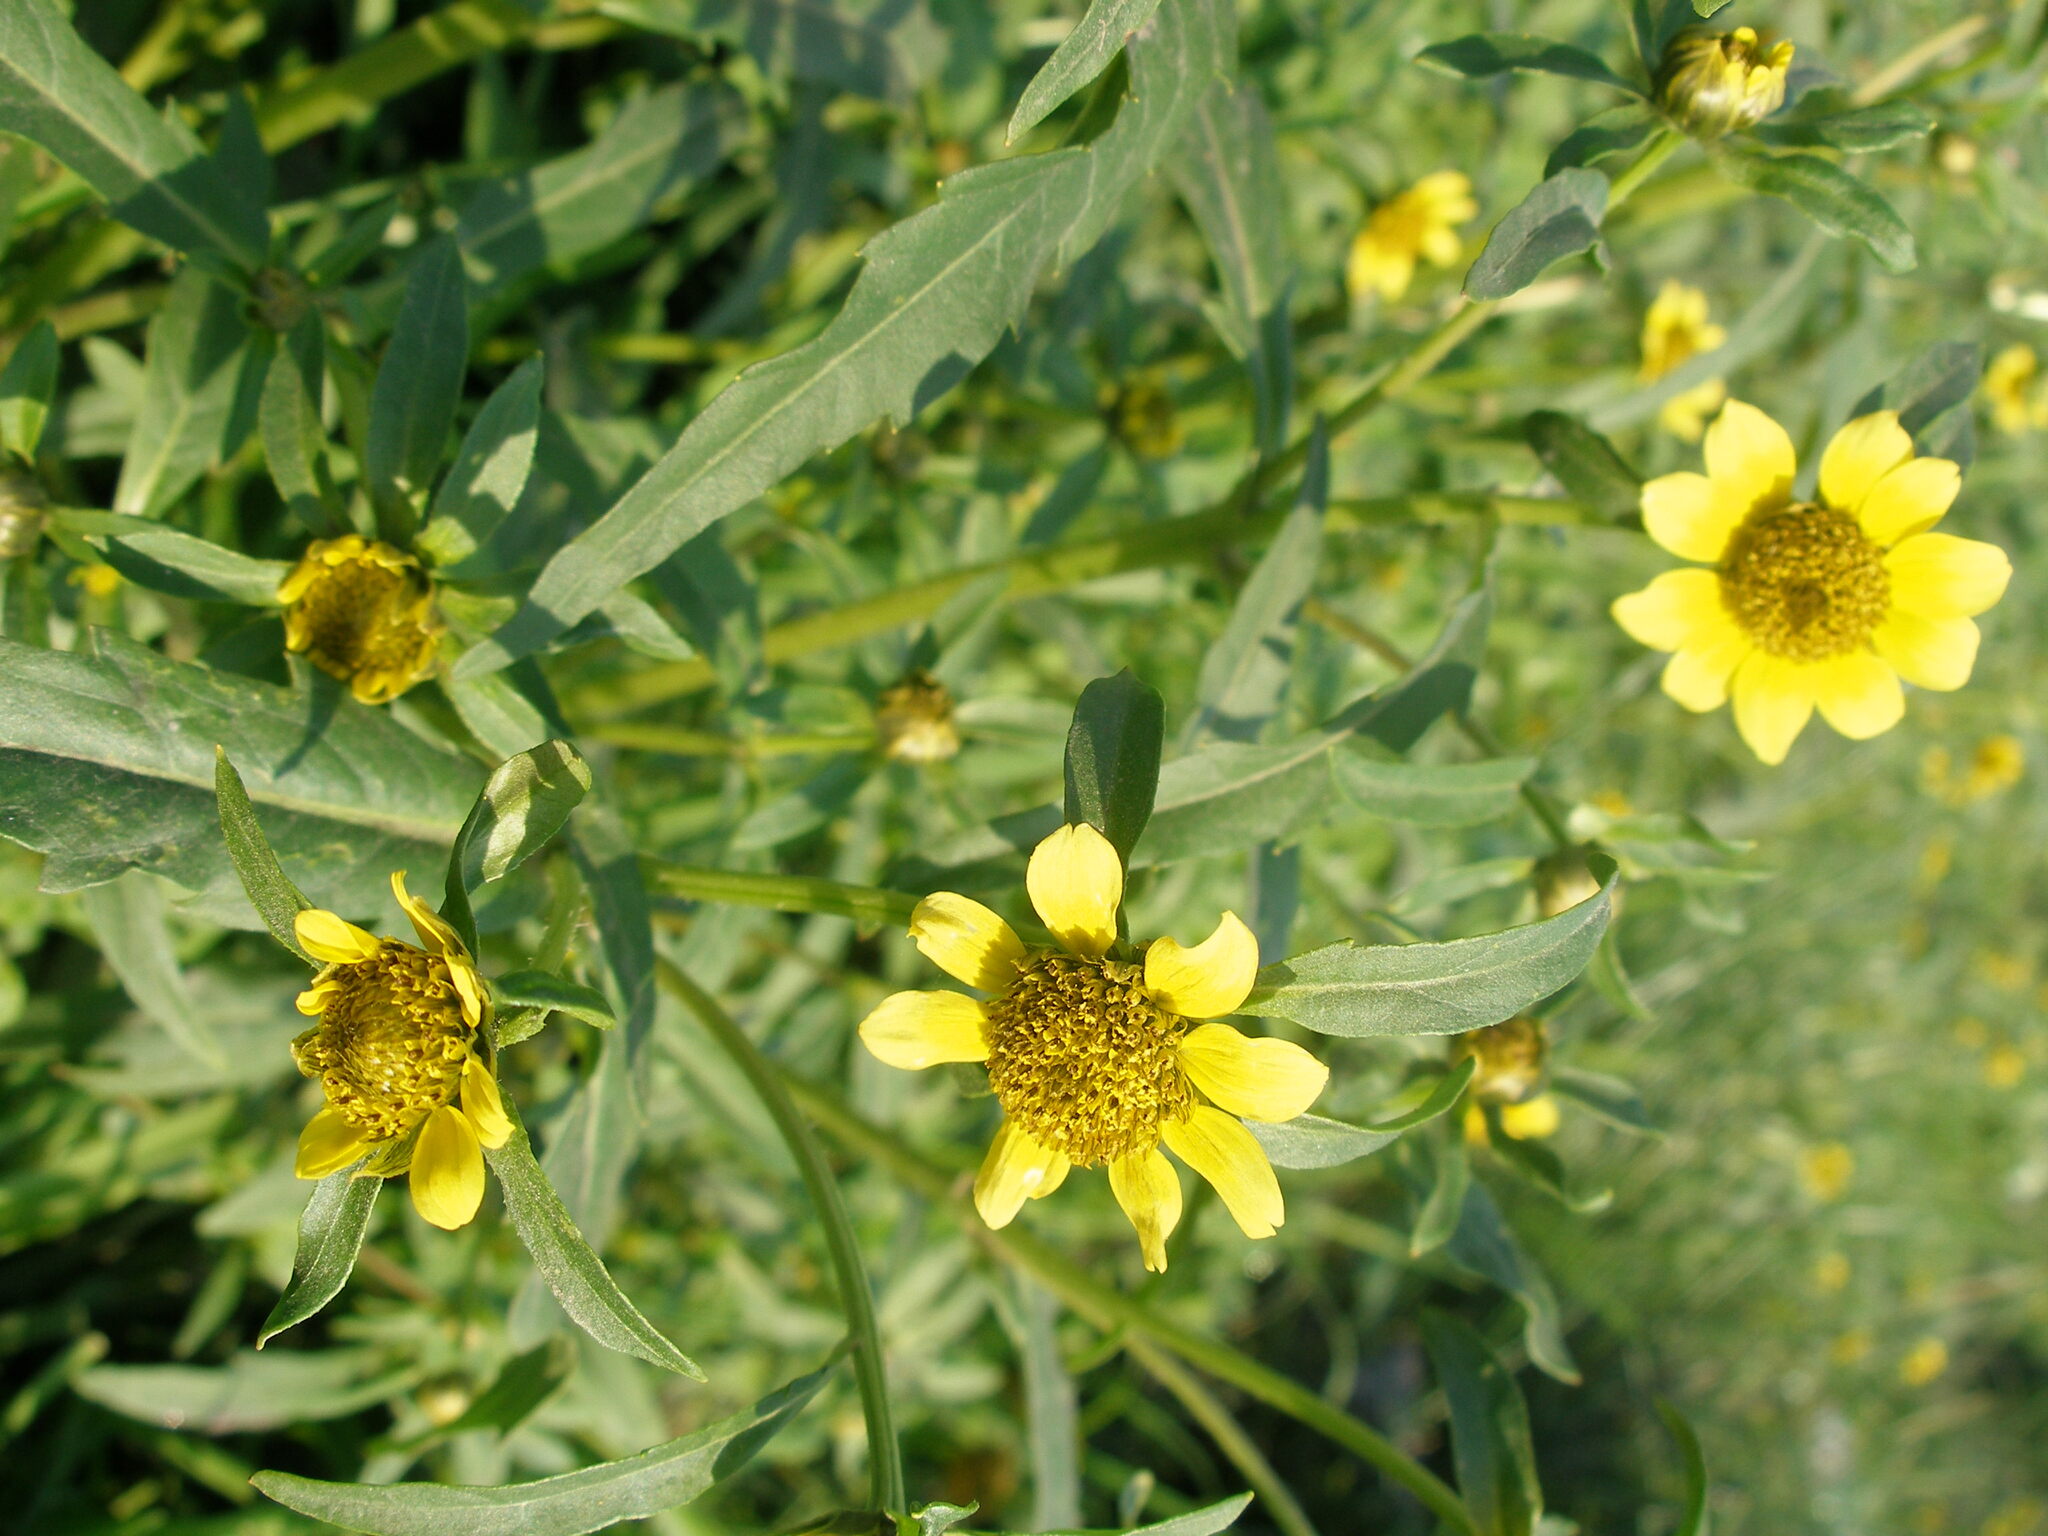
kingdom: Plantae
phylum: Tracheophyta
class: Magnoliopsida
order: Asterales
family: Asteraceae
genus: Bidens
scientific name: Bidens cernua
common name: Nodding bur-marigold
